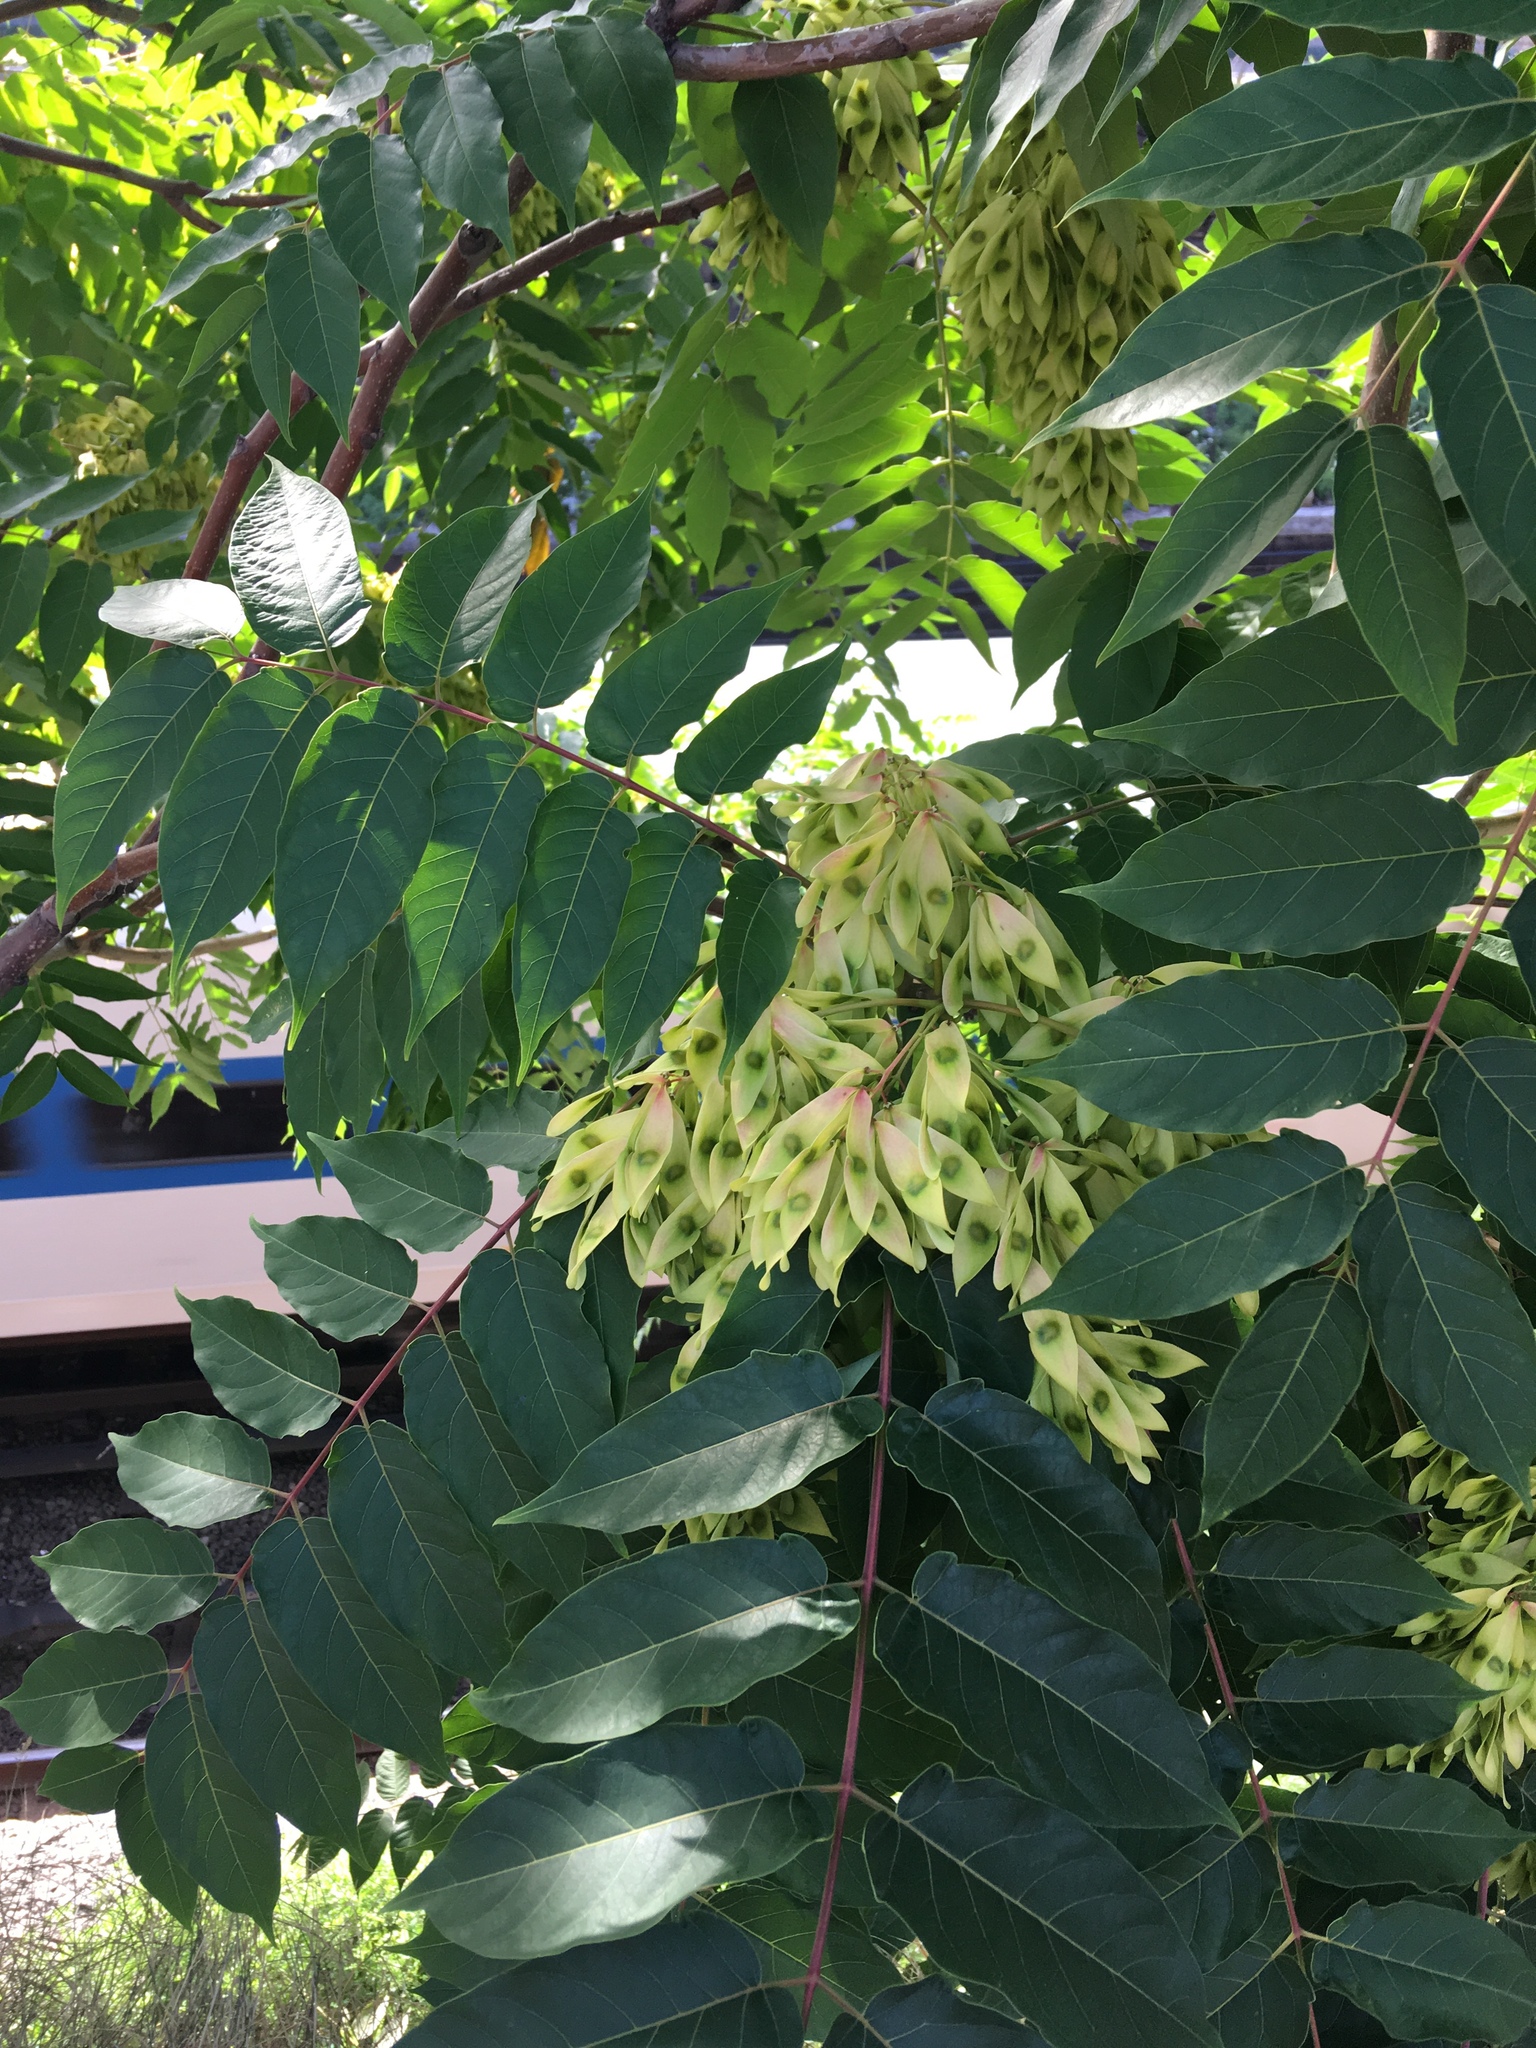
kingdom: Plantae
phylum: Tracheophyta
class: Magnoliopsida
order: Sapindales
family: Simaroubaceae
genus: Ailanthus
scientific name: Ailanthus altissima
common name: Tree-of-heaven
